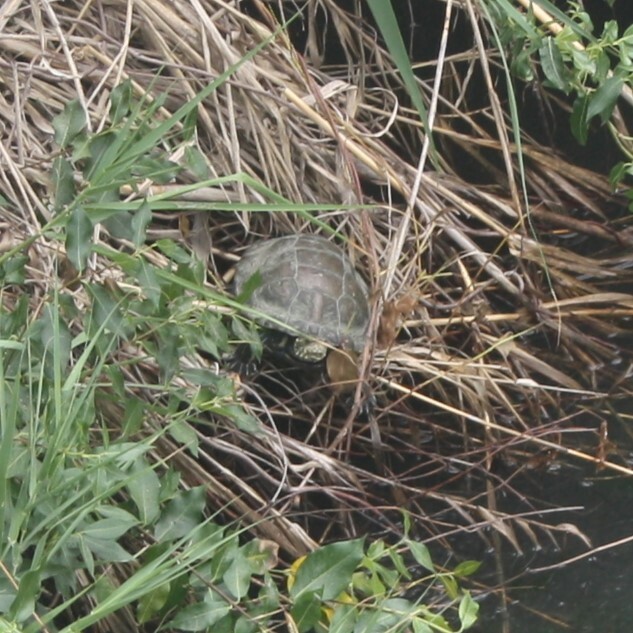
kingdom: Animalia
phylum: Chordata
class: Testudines
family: Emydidae
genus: Emys
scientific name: Emys orbicularis
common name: European pond turtle
